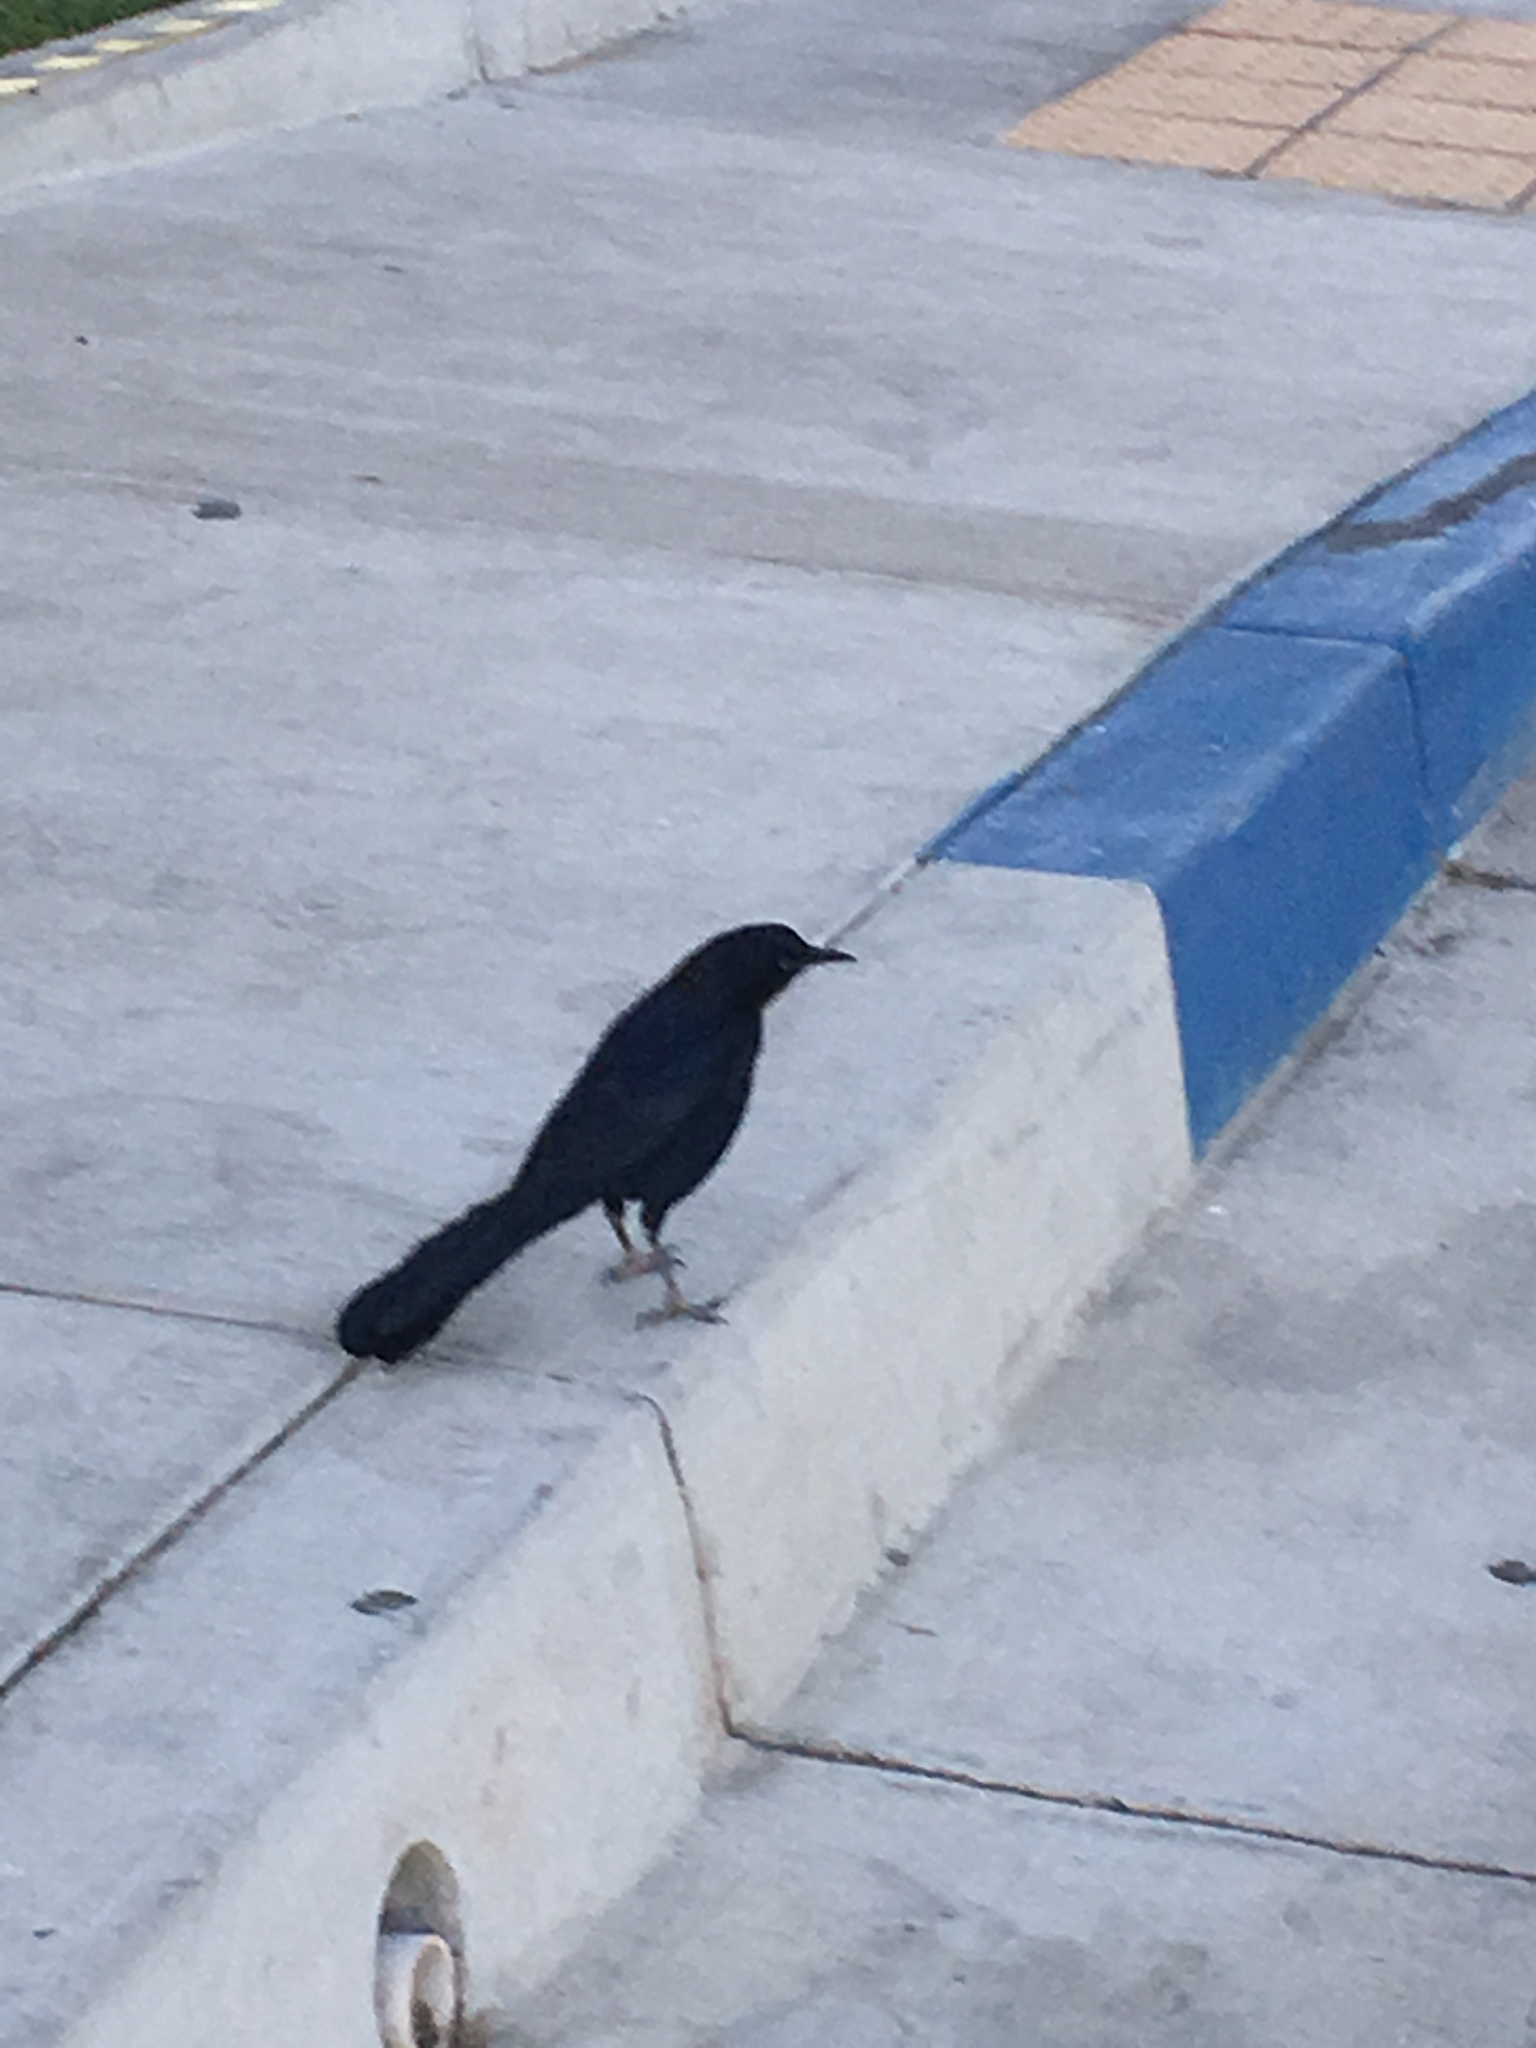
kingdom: Animalia
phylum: Chordata
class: Aves
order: Passeriformes
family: Icteridae
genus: Quiscalus
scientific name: Quiscalus mexicanus
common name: Great-tailed grackle
